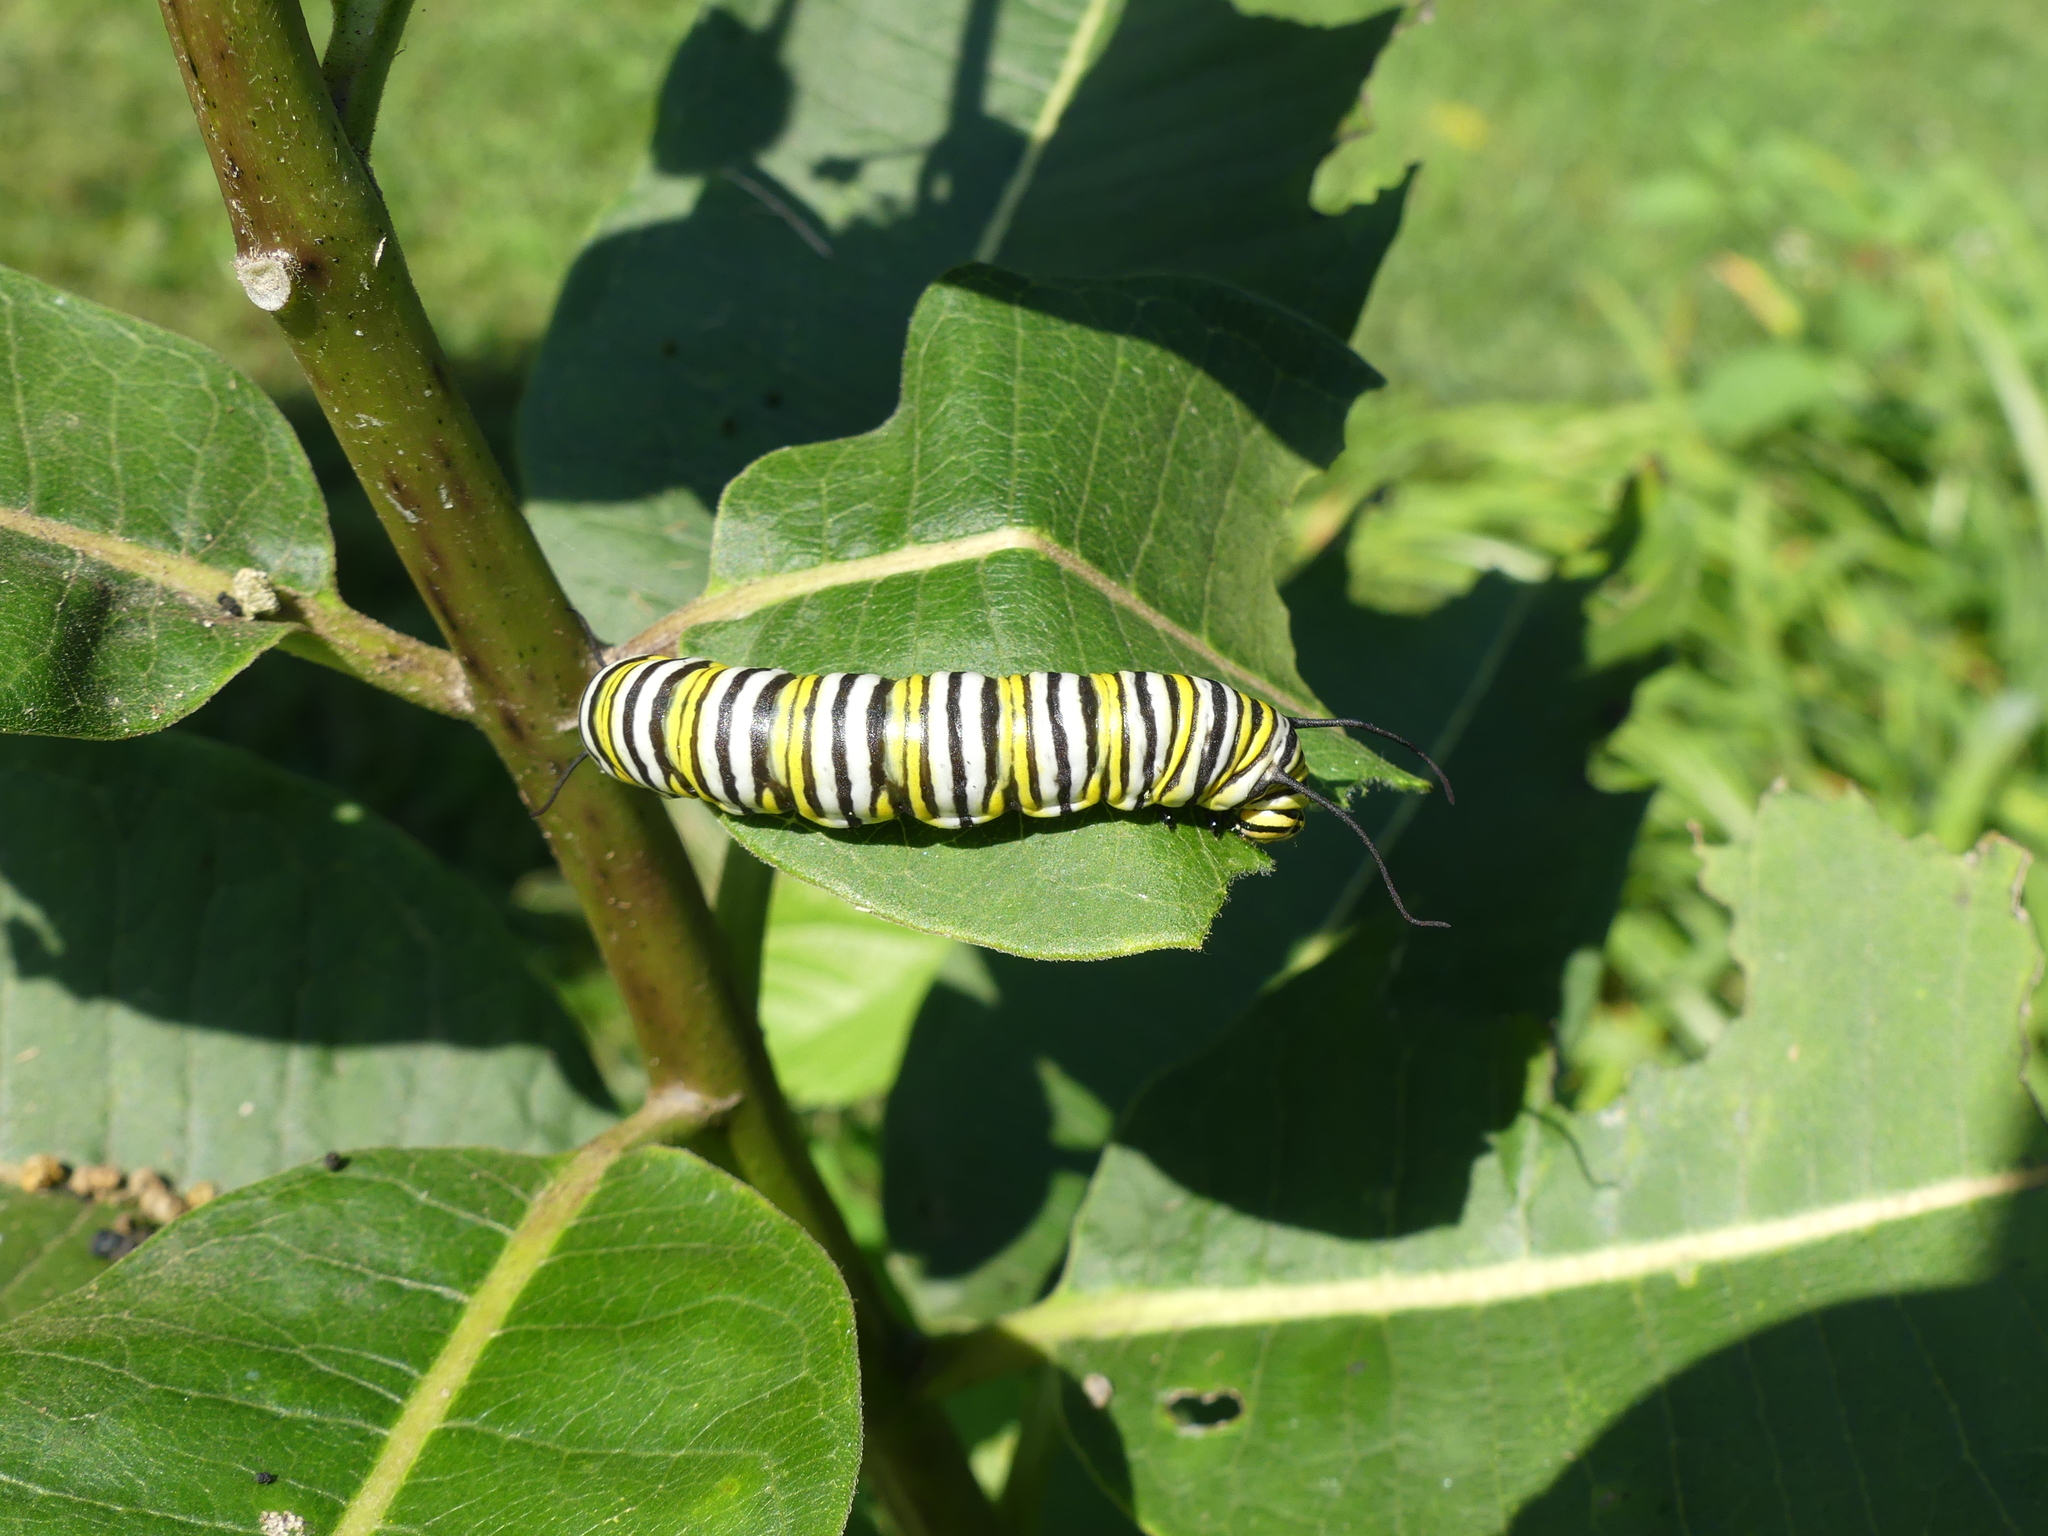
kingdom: Animalia
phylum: Arthropoda
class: Insecta
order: Lepidoptera
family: Nymphalidae
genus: Danaus
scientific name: Danaus plexippus
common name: Monarch
